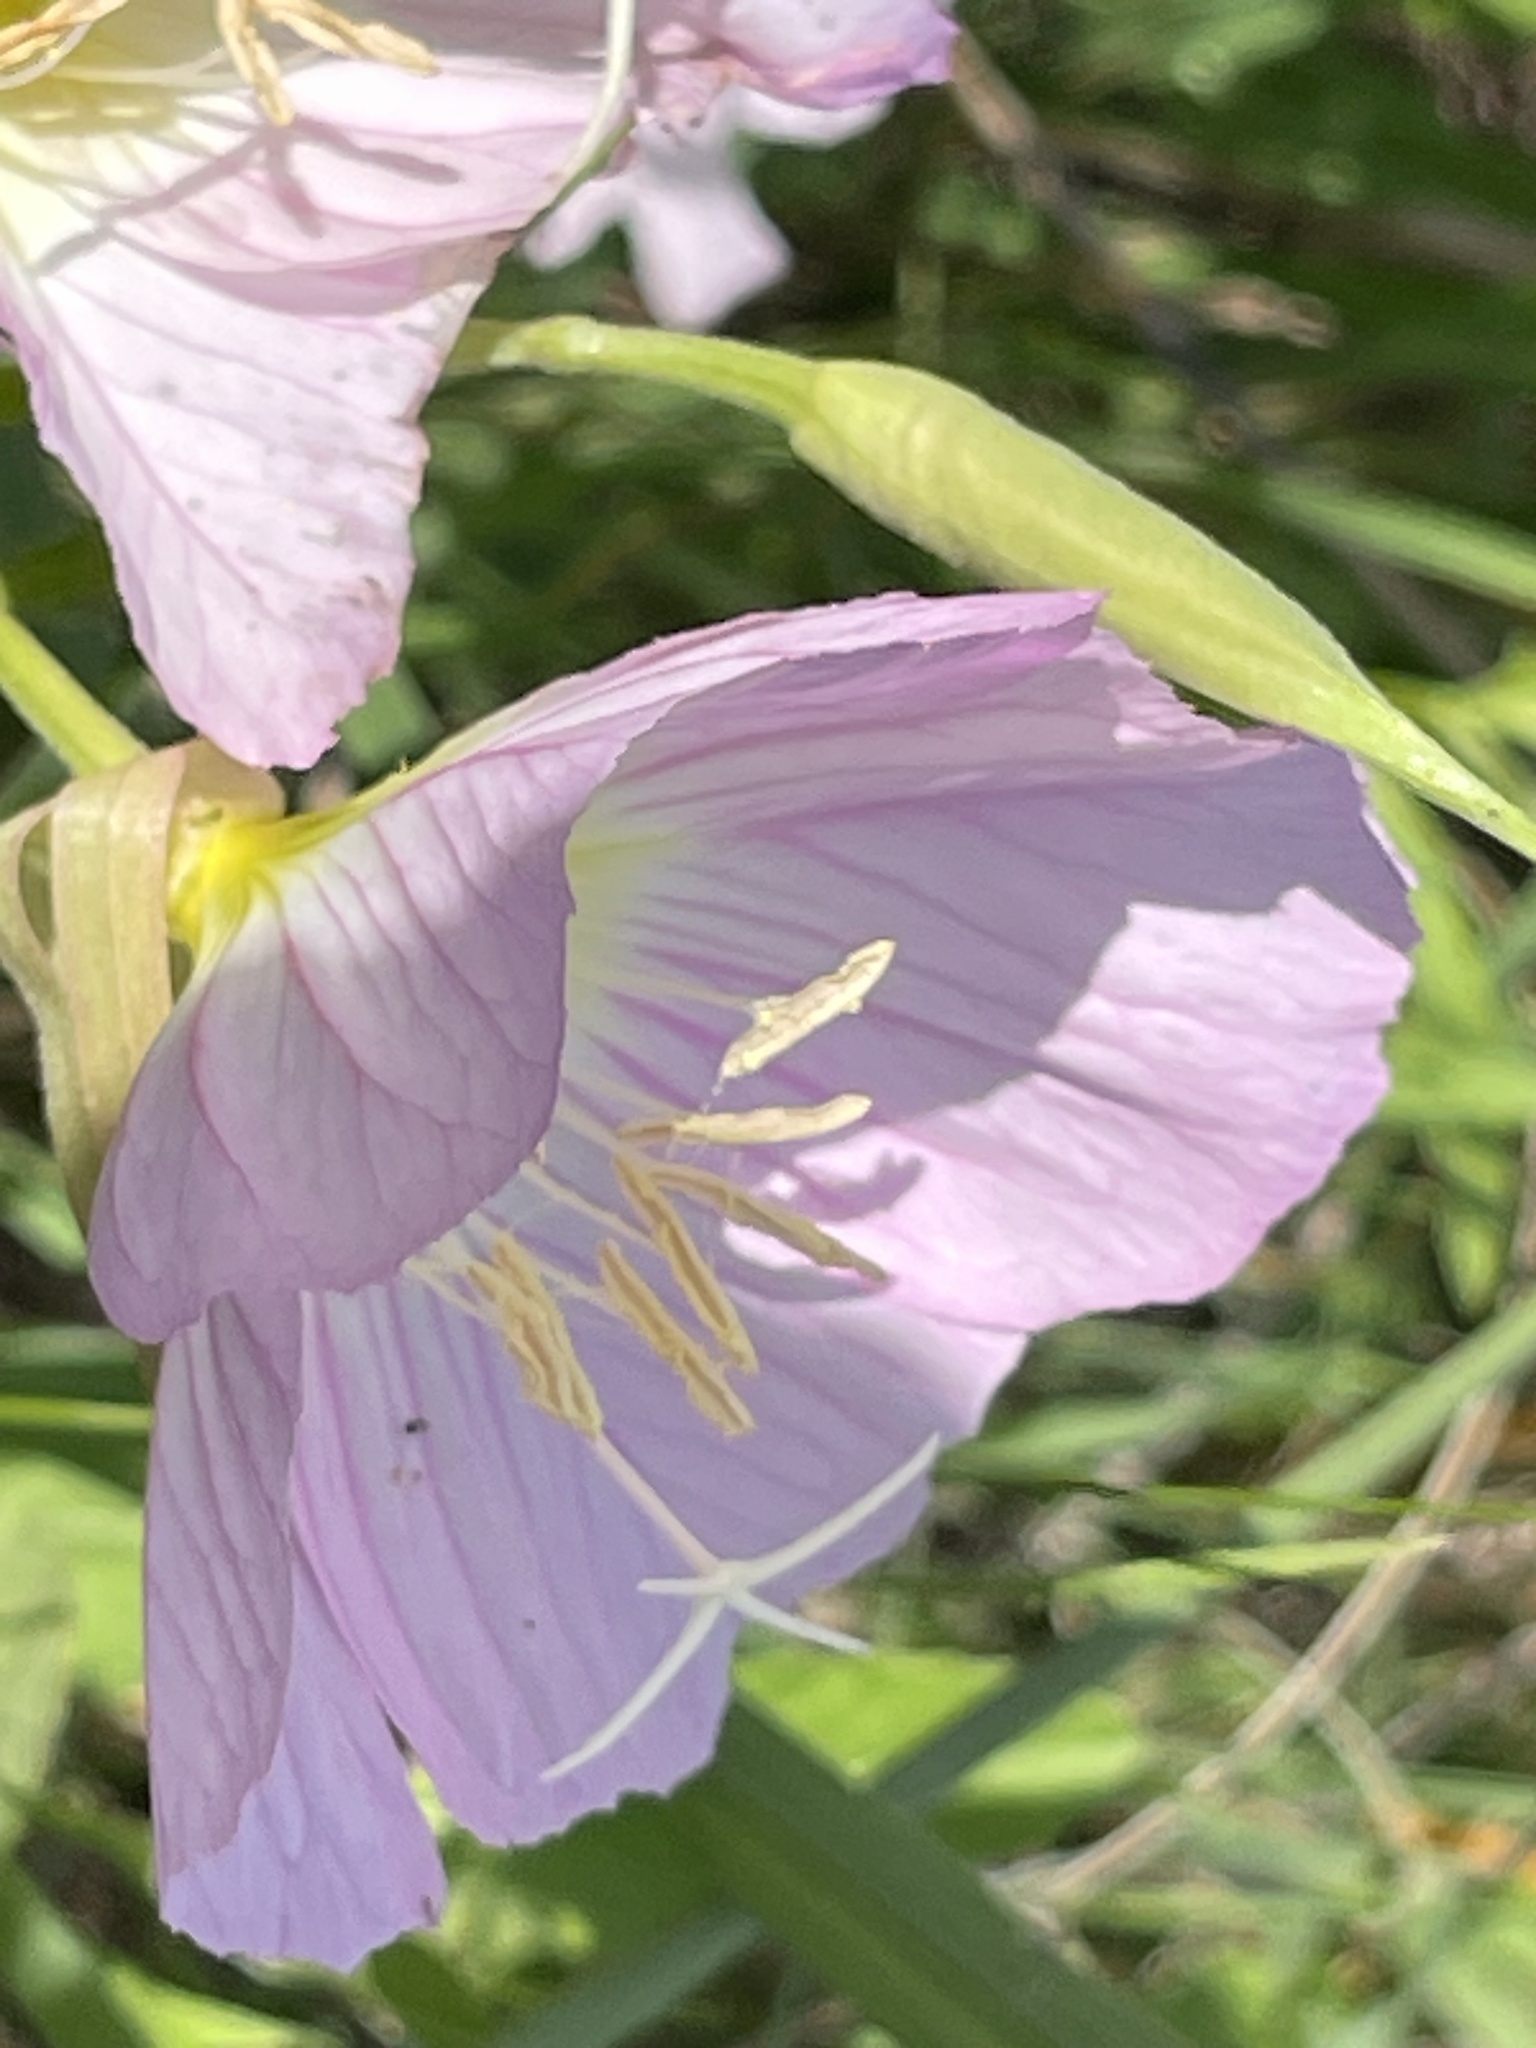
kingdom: Plantae
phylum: Tracheophyta
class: Magnoliopsida
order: Myrtales
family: Onagraceae
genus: Oenothera
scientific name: Oenothera speciosa
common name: White evening-primrose
